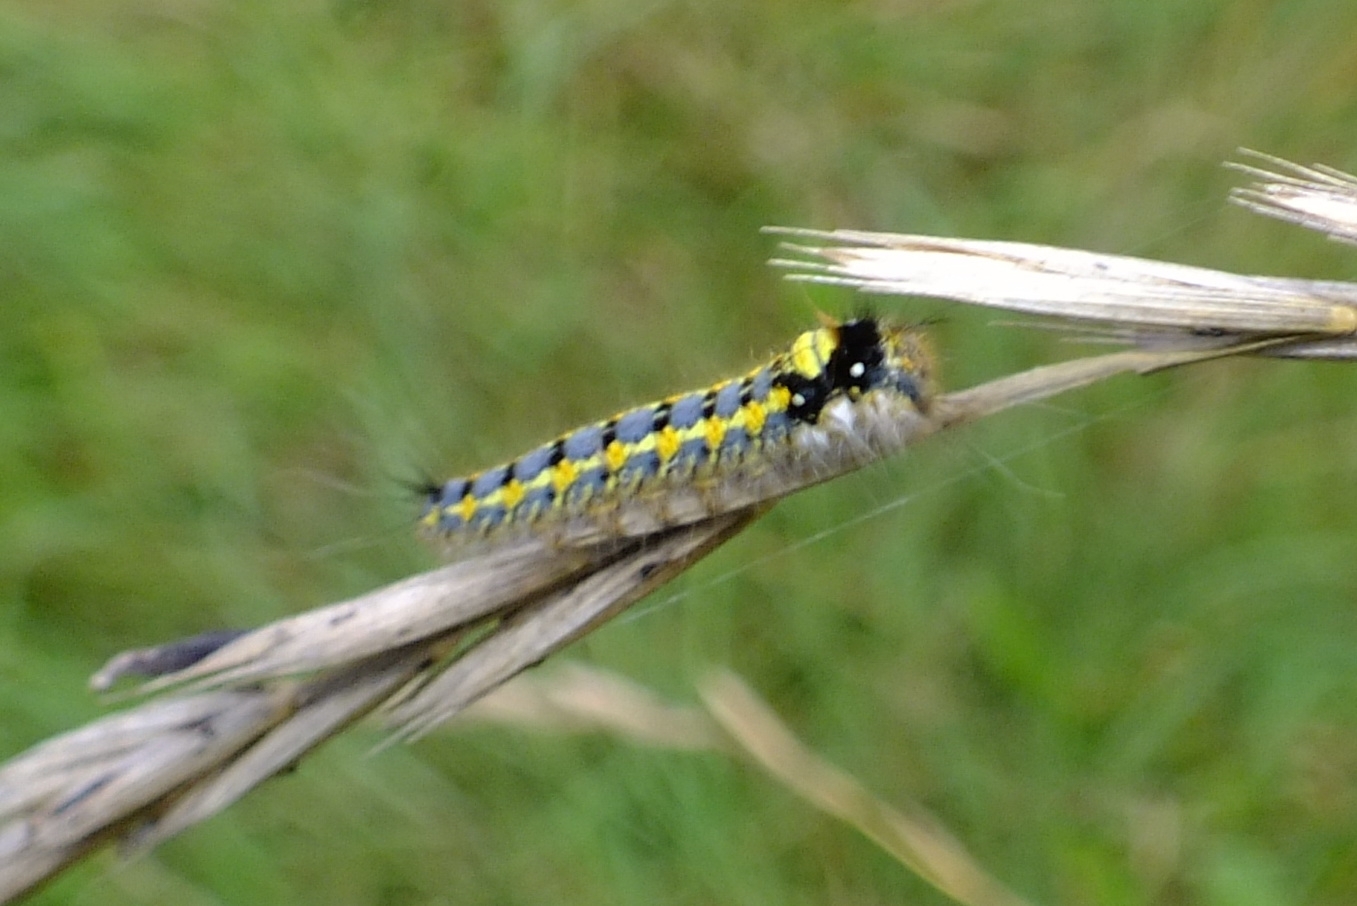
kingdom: Animalia
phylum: Arthropoda
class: Insecta
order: Lepidoptera
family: Lasiocampidae
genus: Euthrix
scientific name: Euthrix potatoria
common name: Drinker
